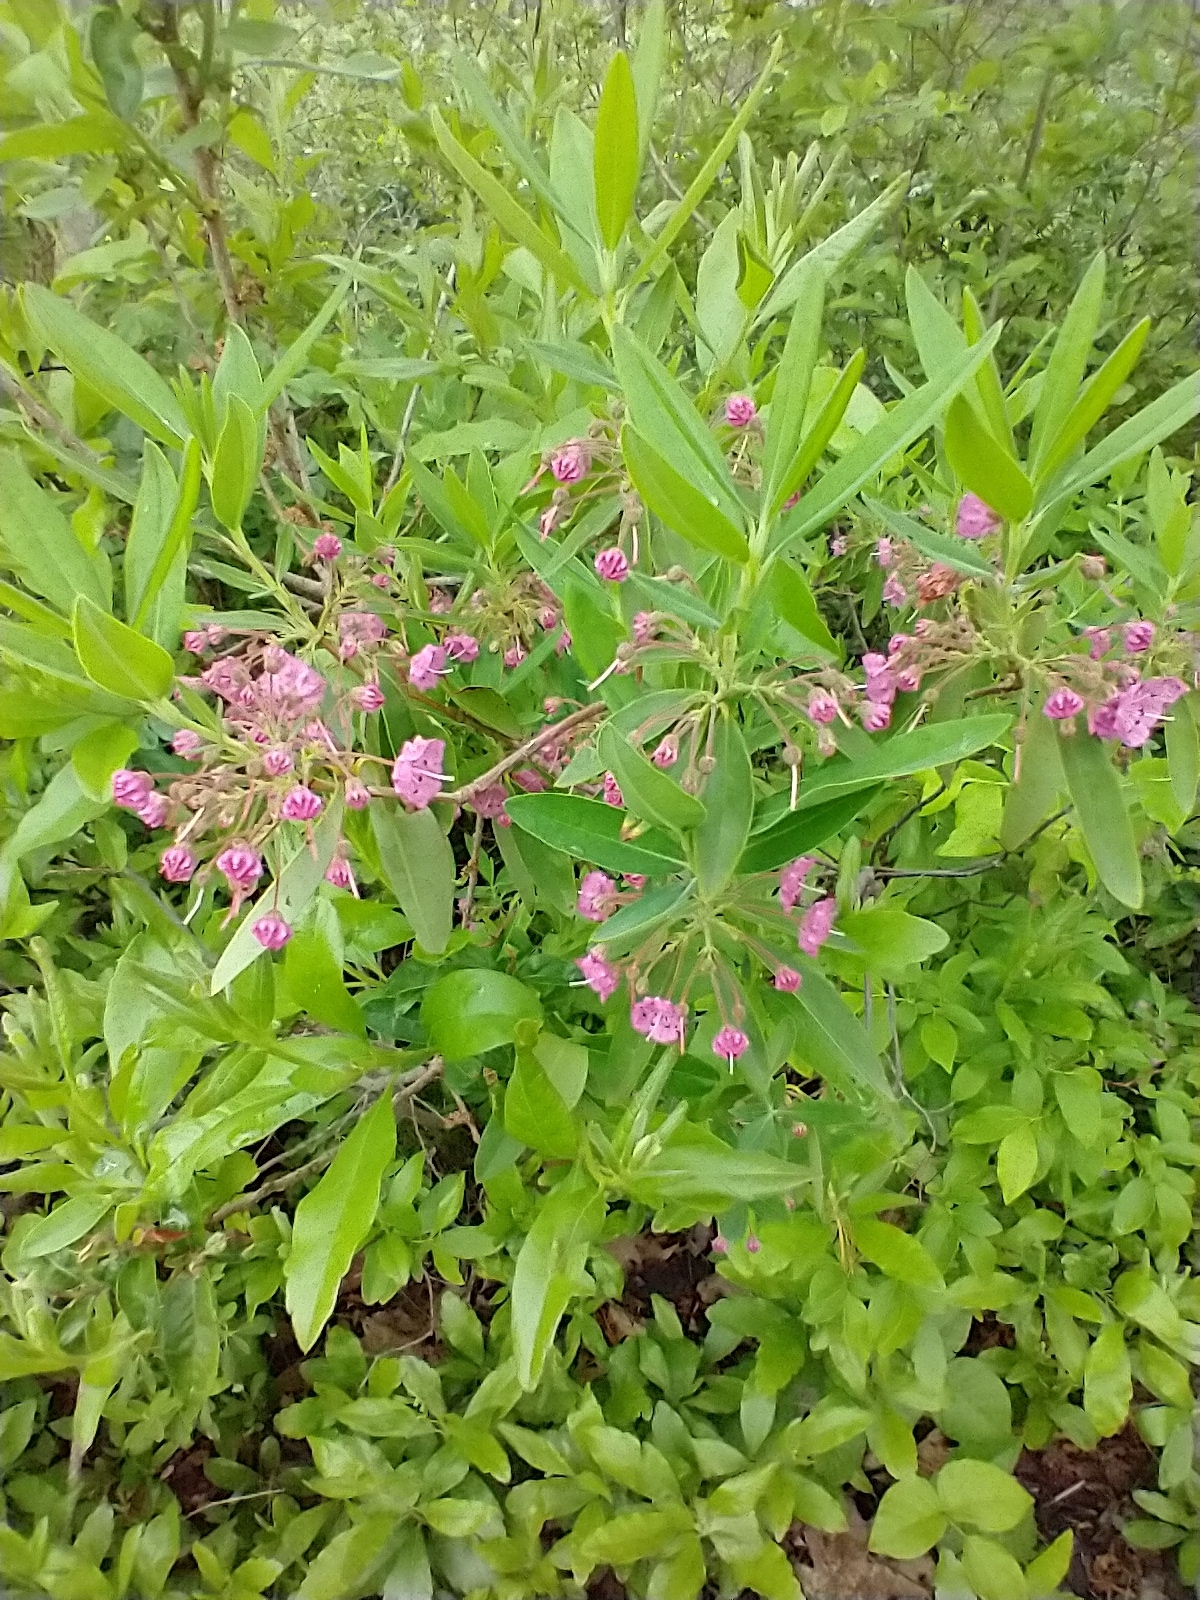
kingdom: Plantae
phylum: Tracheophyta
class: Magnoliopsida
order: Ericales
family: Ericaceae
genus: Kalmia
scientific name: Kalmia angustifolia
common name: Sheep-laurel
